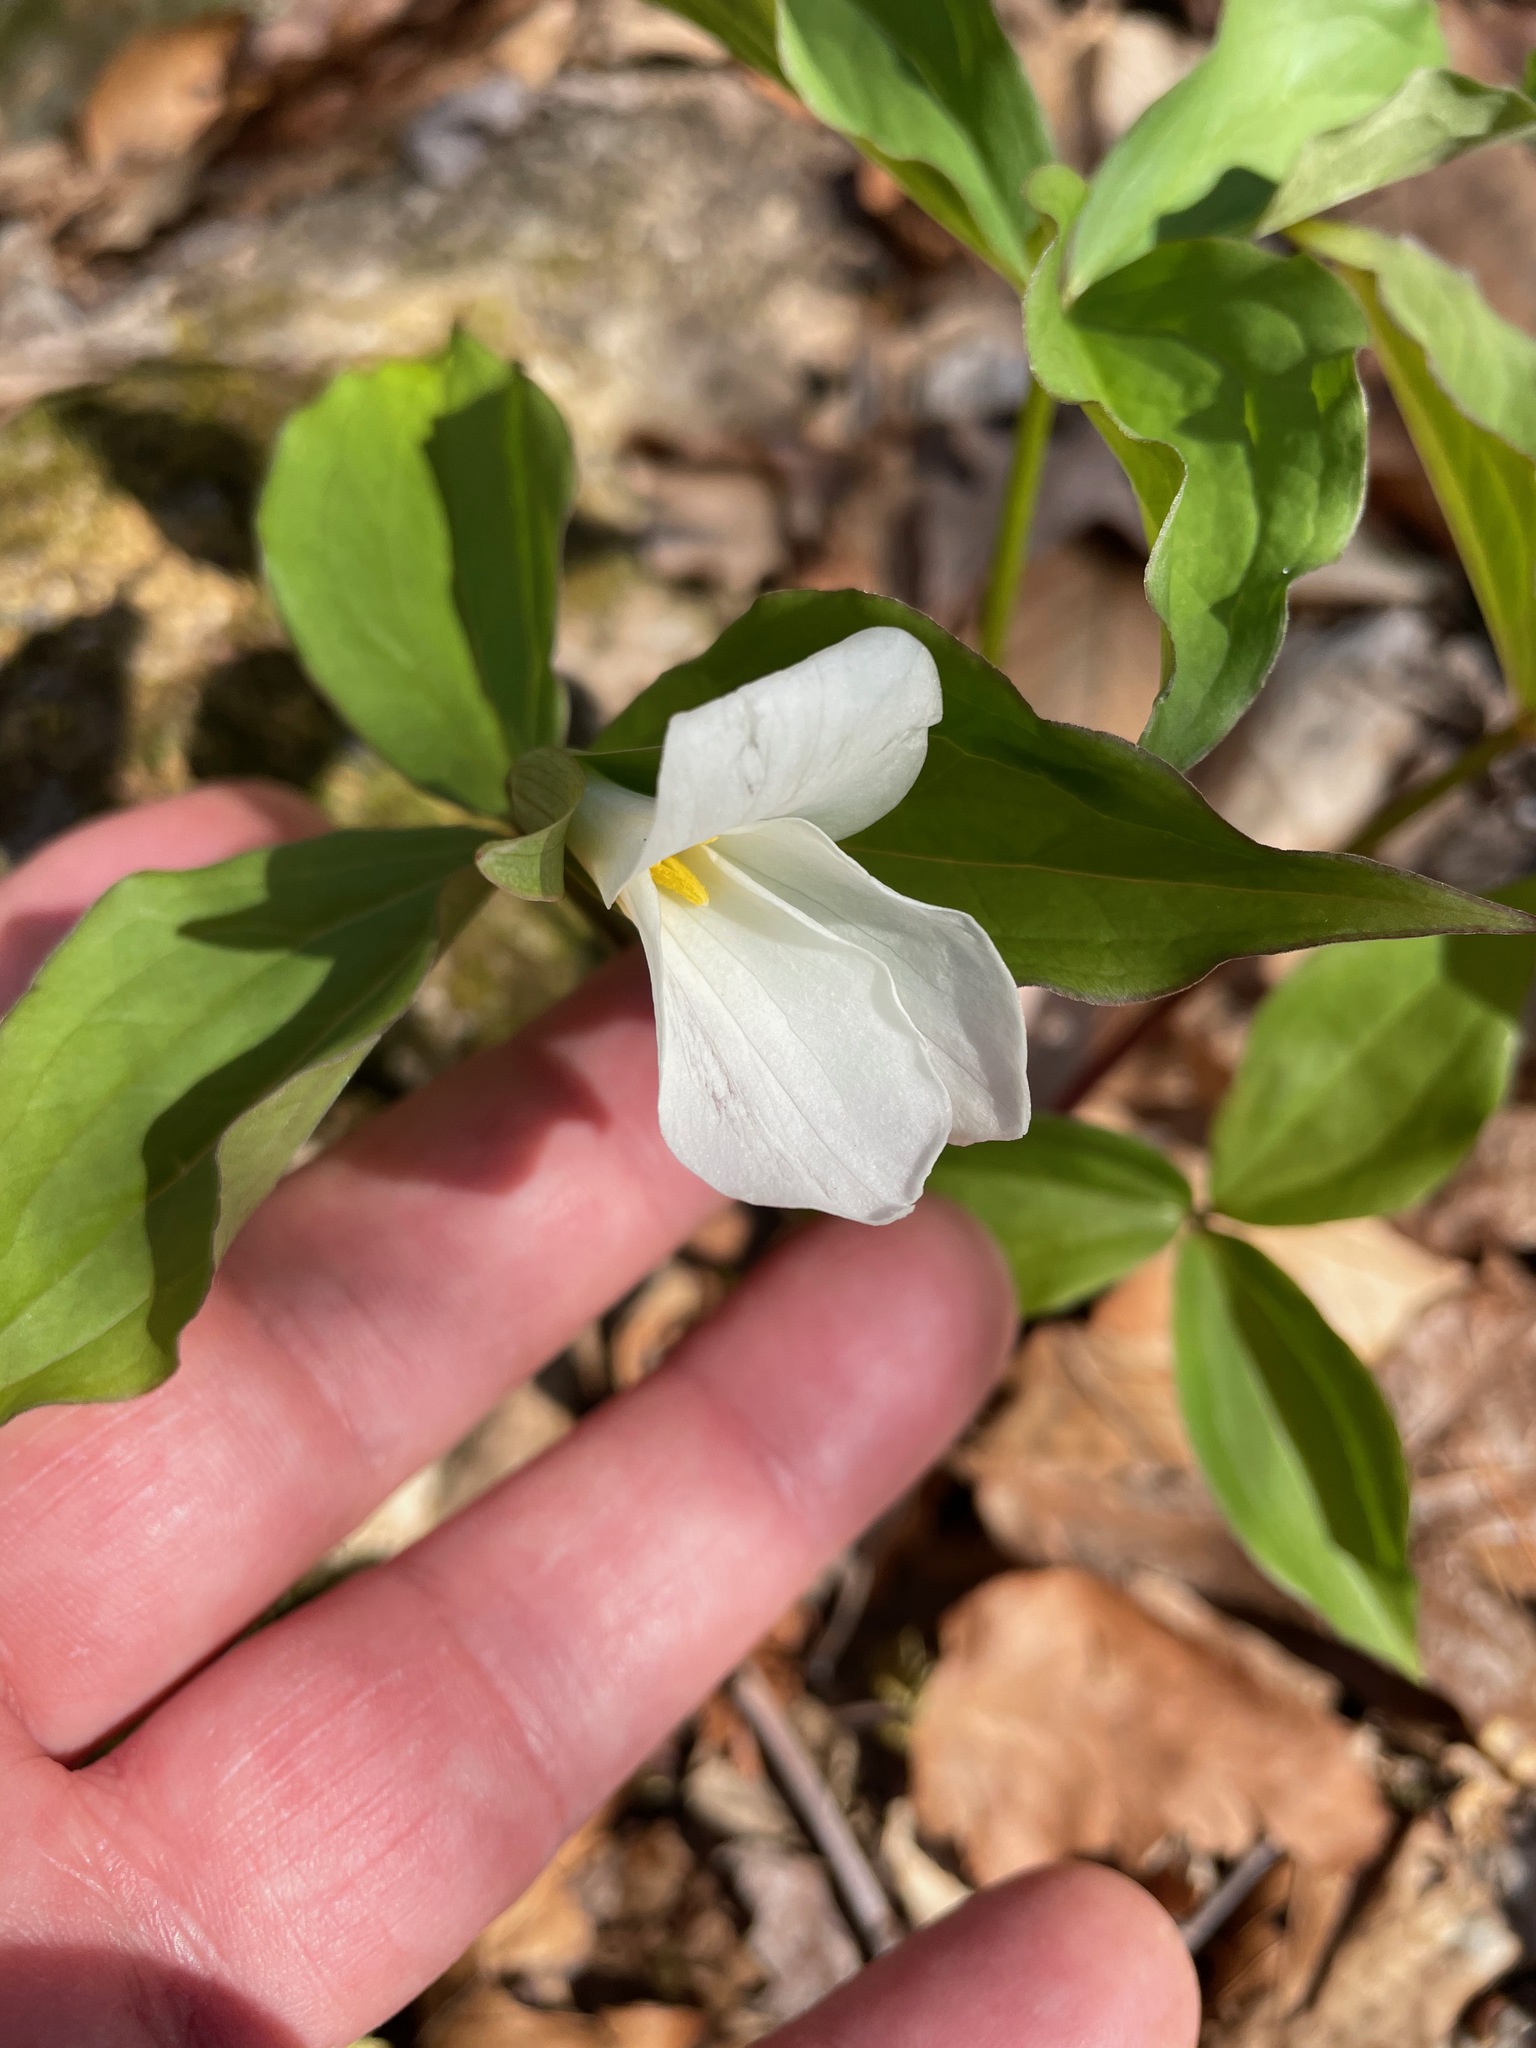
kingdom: Plantae
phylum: Tracheophyta
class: Liliopsida
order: Liliales
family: Melanthiaceae
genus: Trillium
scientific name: Trillium grandiflorum
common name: Great white trillium
